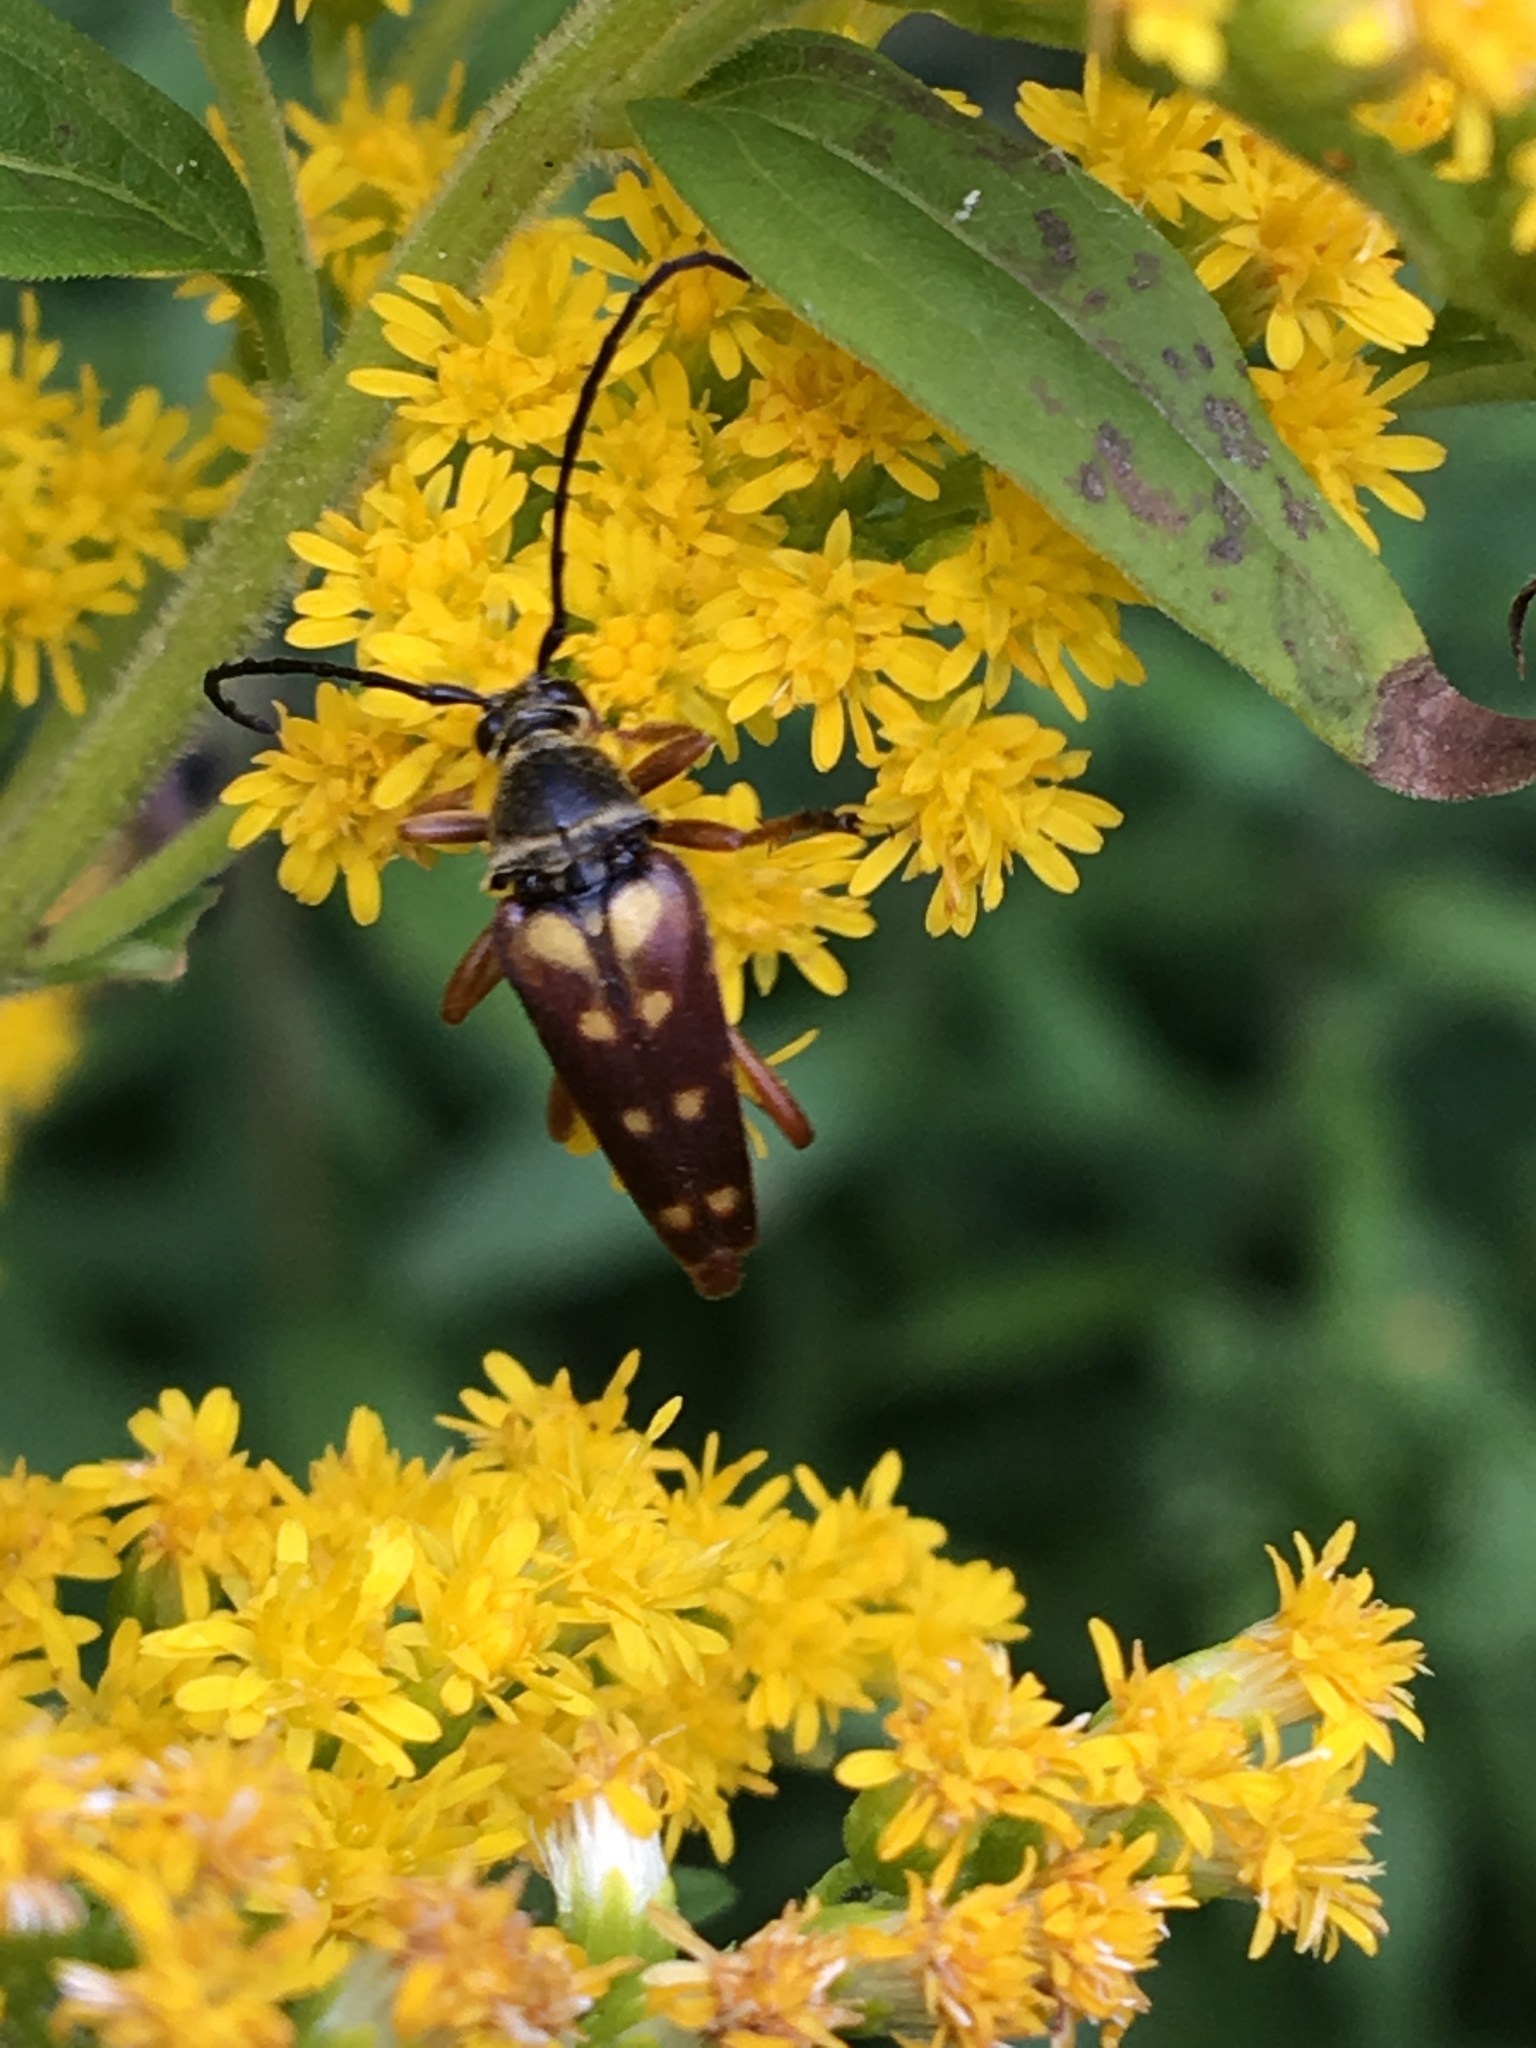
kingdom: Animalia
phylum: Arthropoda
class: Insecta
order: Coleoptera
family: Cerambycidae
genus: Typocerus
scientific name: Typocerus velutinus
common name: Banded longhorn beetle
